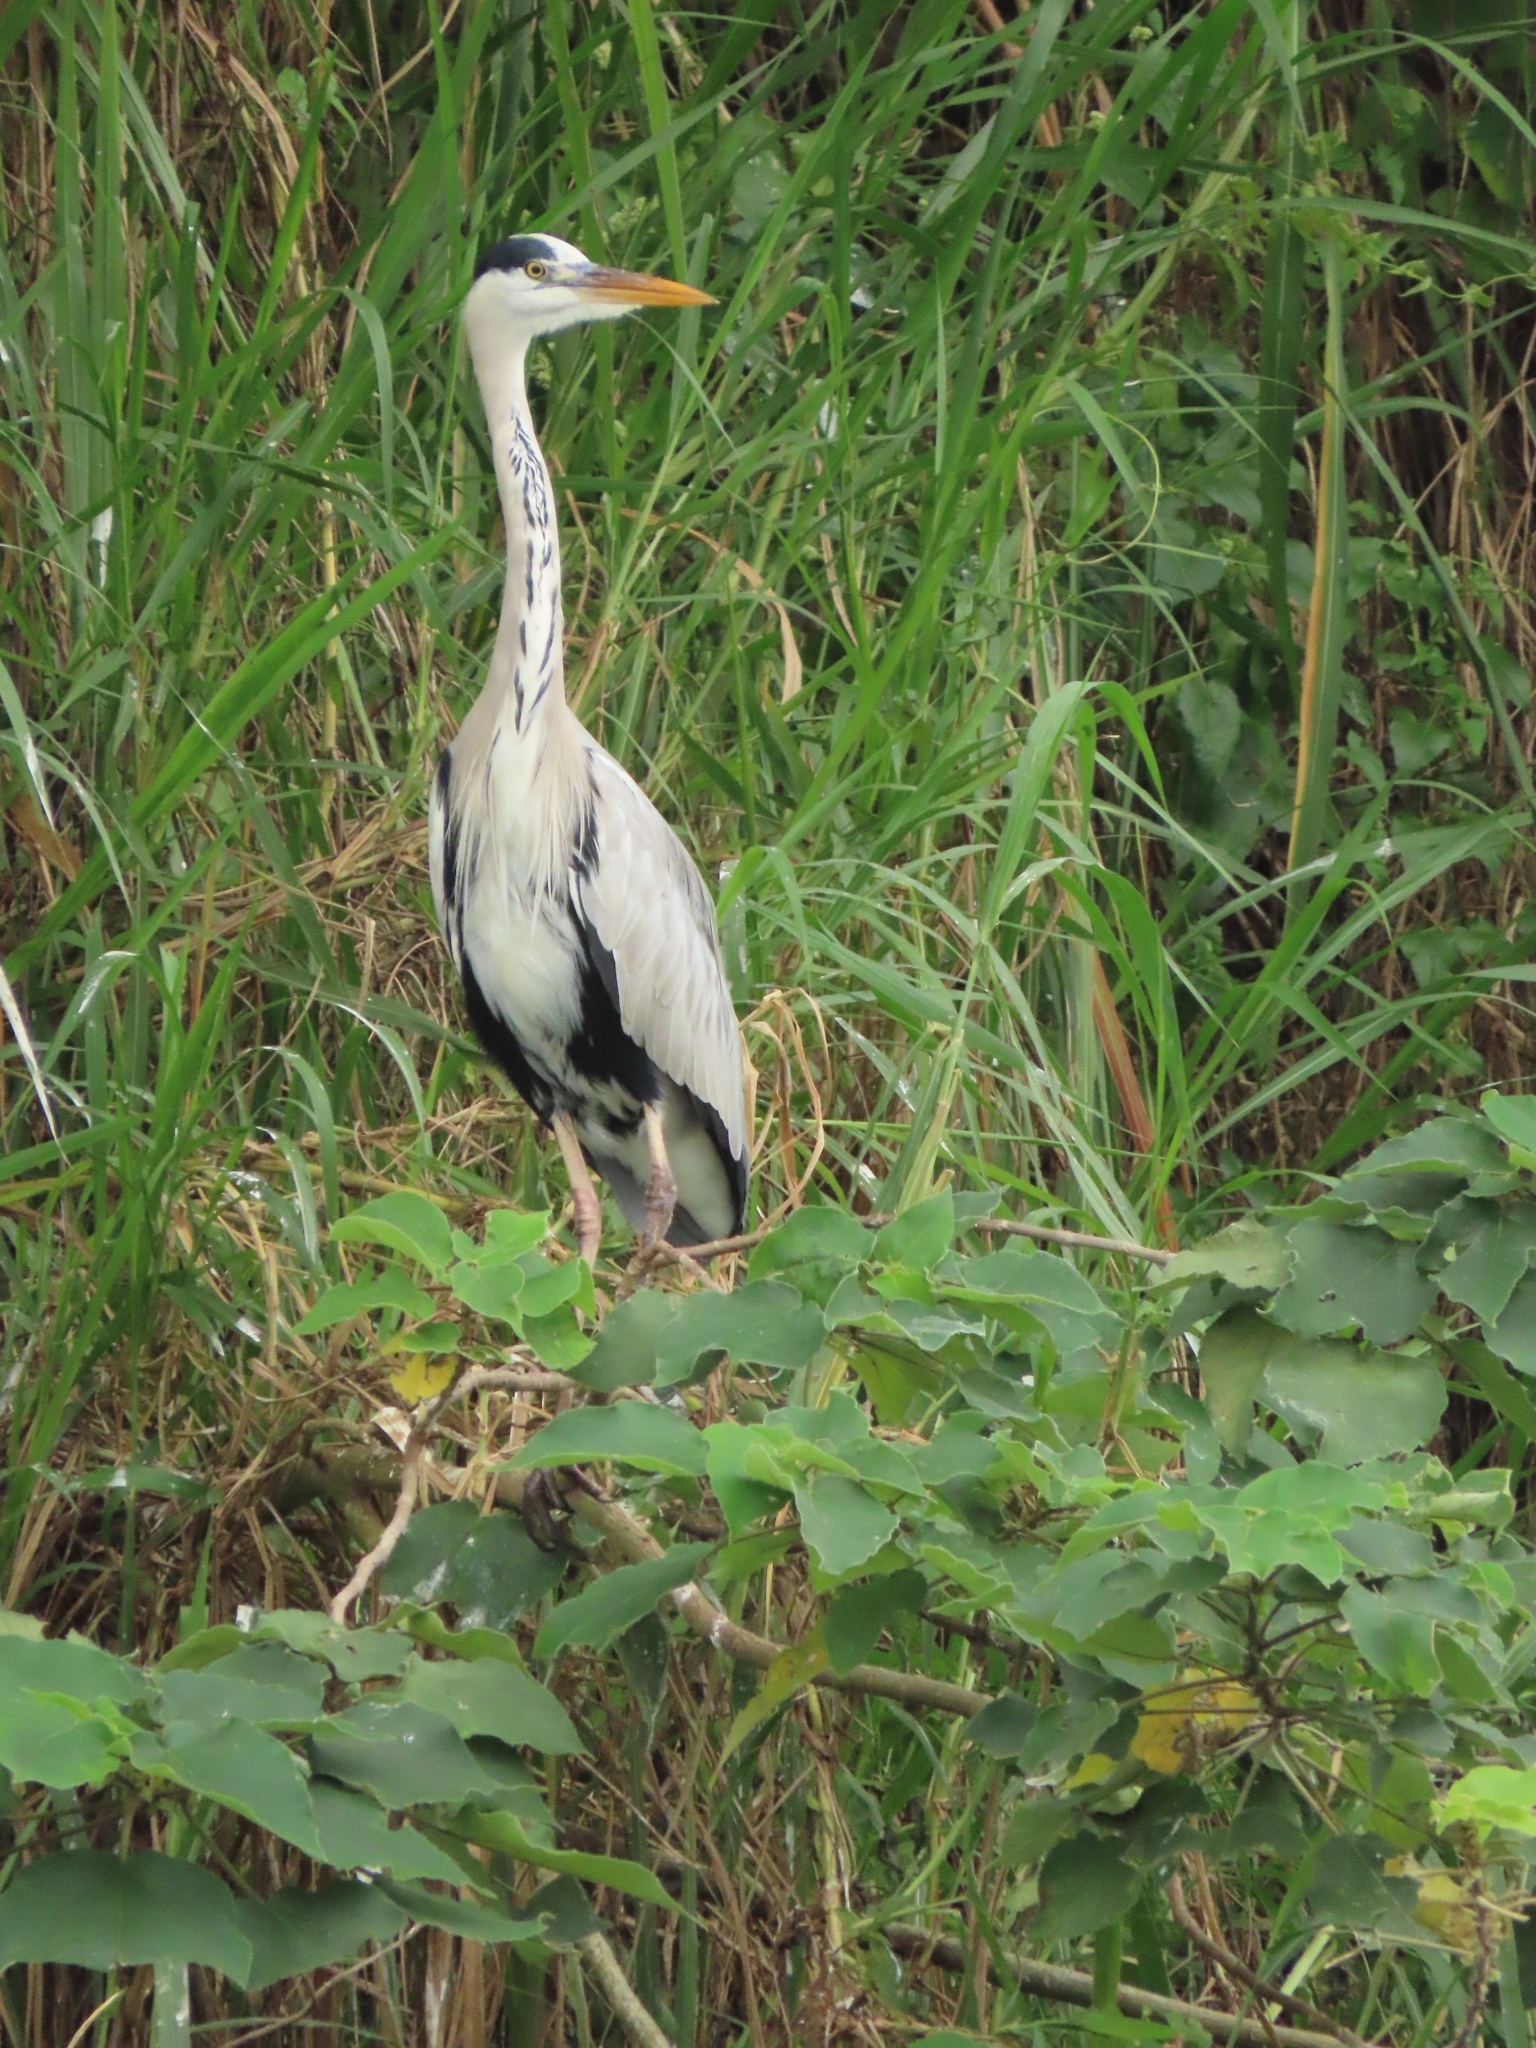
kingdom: Animalia
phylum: Chordata
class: Aves
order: Pelecaniformes
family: Ardeidae
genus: Ardea
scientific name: Ardea cinerea
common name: Grey heron
